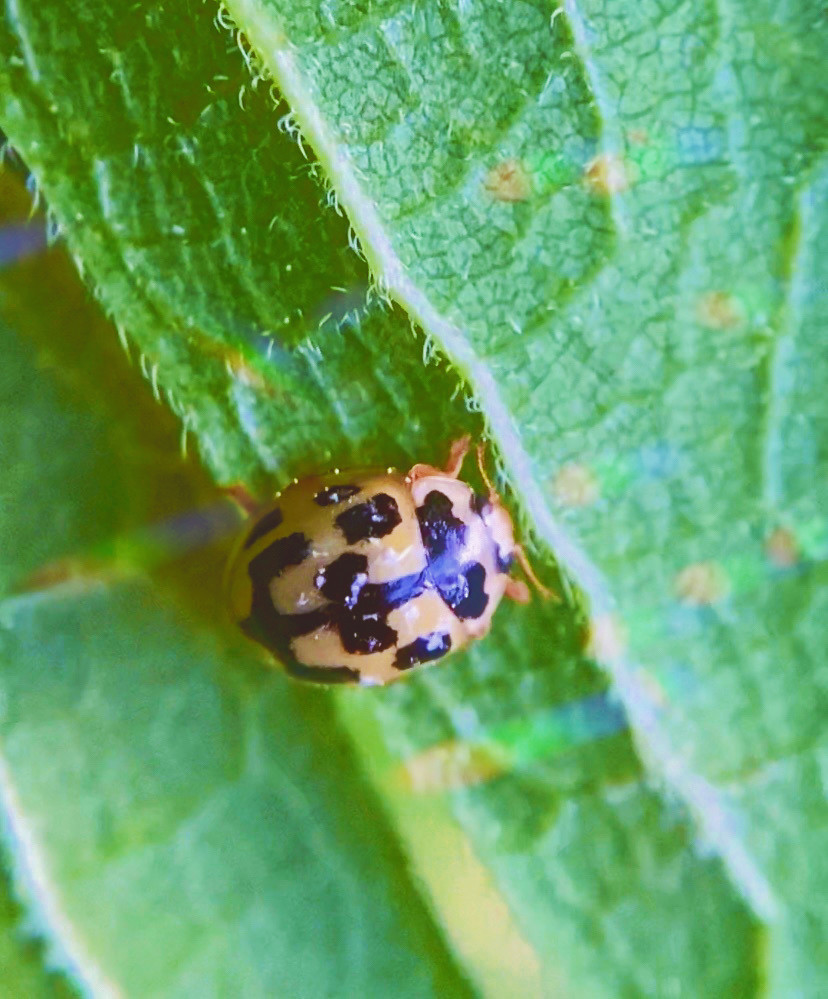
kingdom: Animalia
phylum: Arthropoda
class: Insecta
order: Coleoptera
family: Coccinellidae
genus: Propylaea
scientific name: Propylaea quatuordecimpunctata
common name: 14-spotted ladybird beetle
